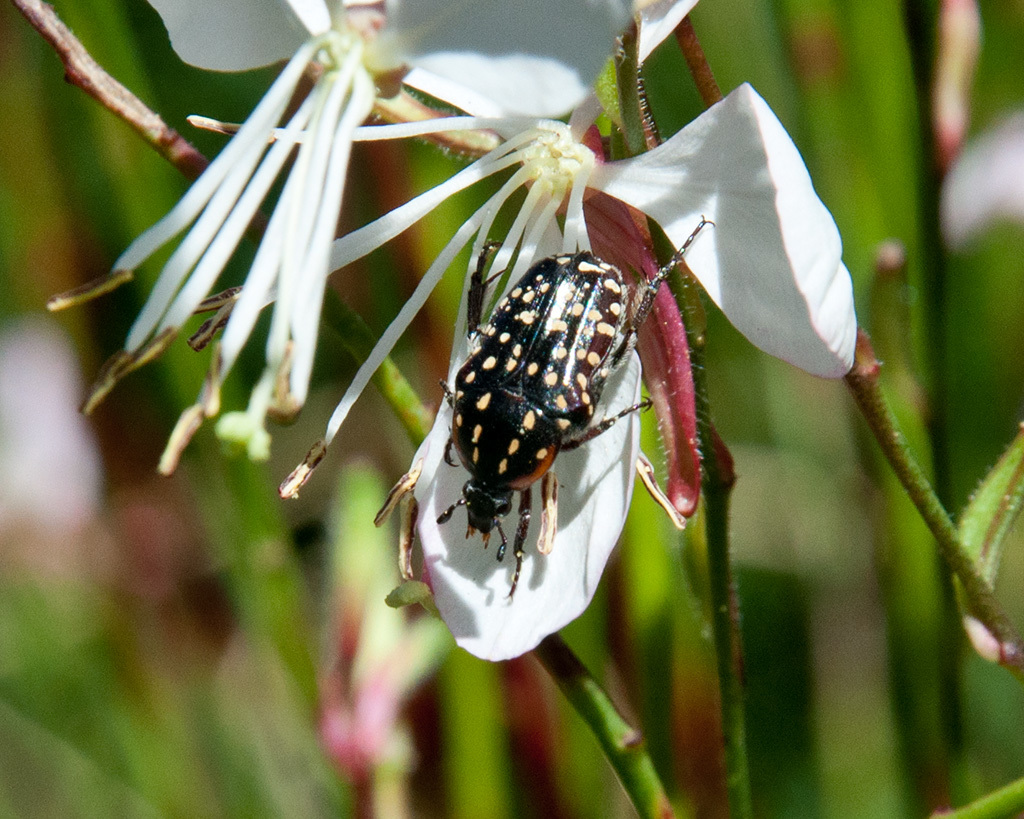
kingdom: Animalia
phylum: Arthropoda
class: Insecta
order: Coleoptera
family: Scarabaeidae
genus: Oxythyrea
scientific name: Oxythyrea
